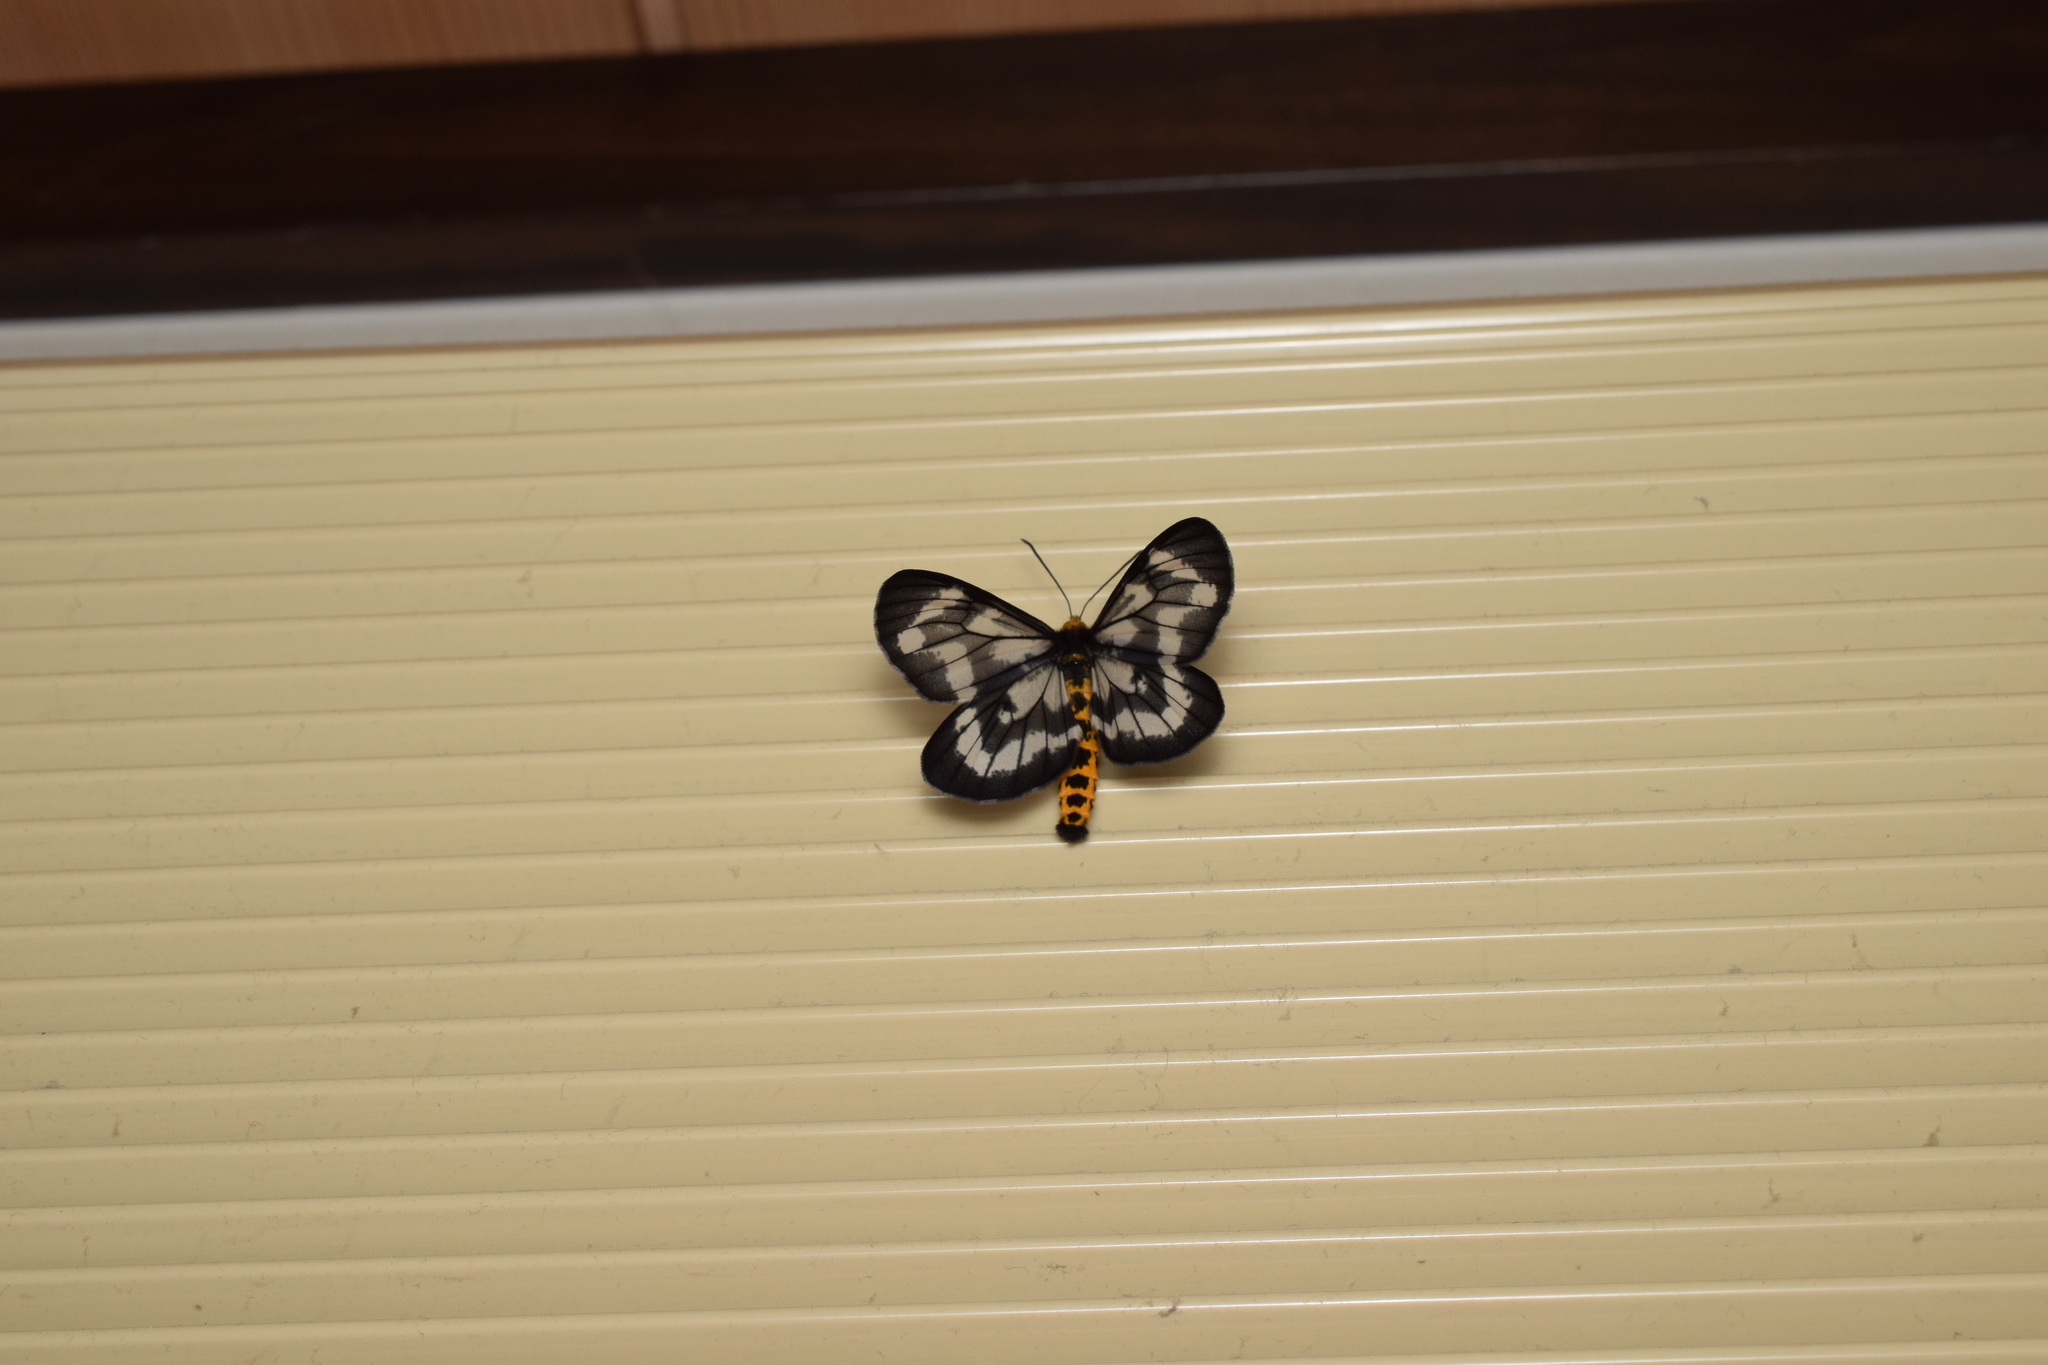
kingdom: Animalia
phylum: Arthropoda
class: Insecta
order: Lepidoptera
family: Geometridae
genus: Cystidia
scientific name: Cystidia truncangulata
